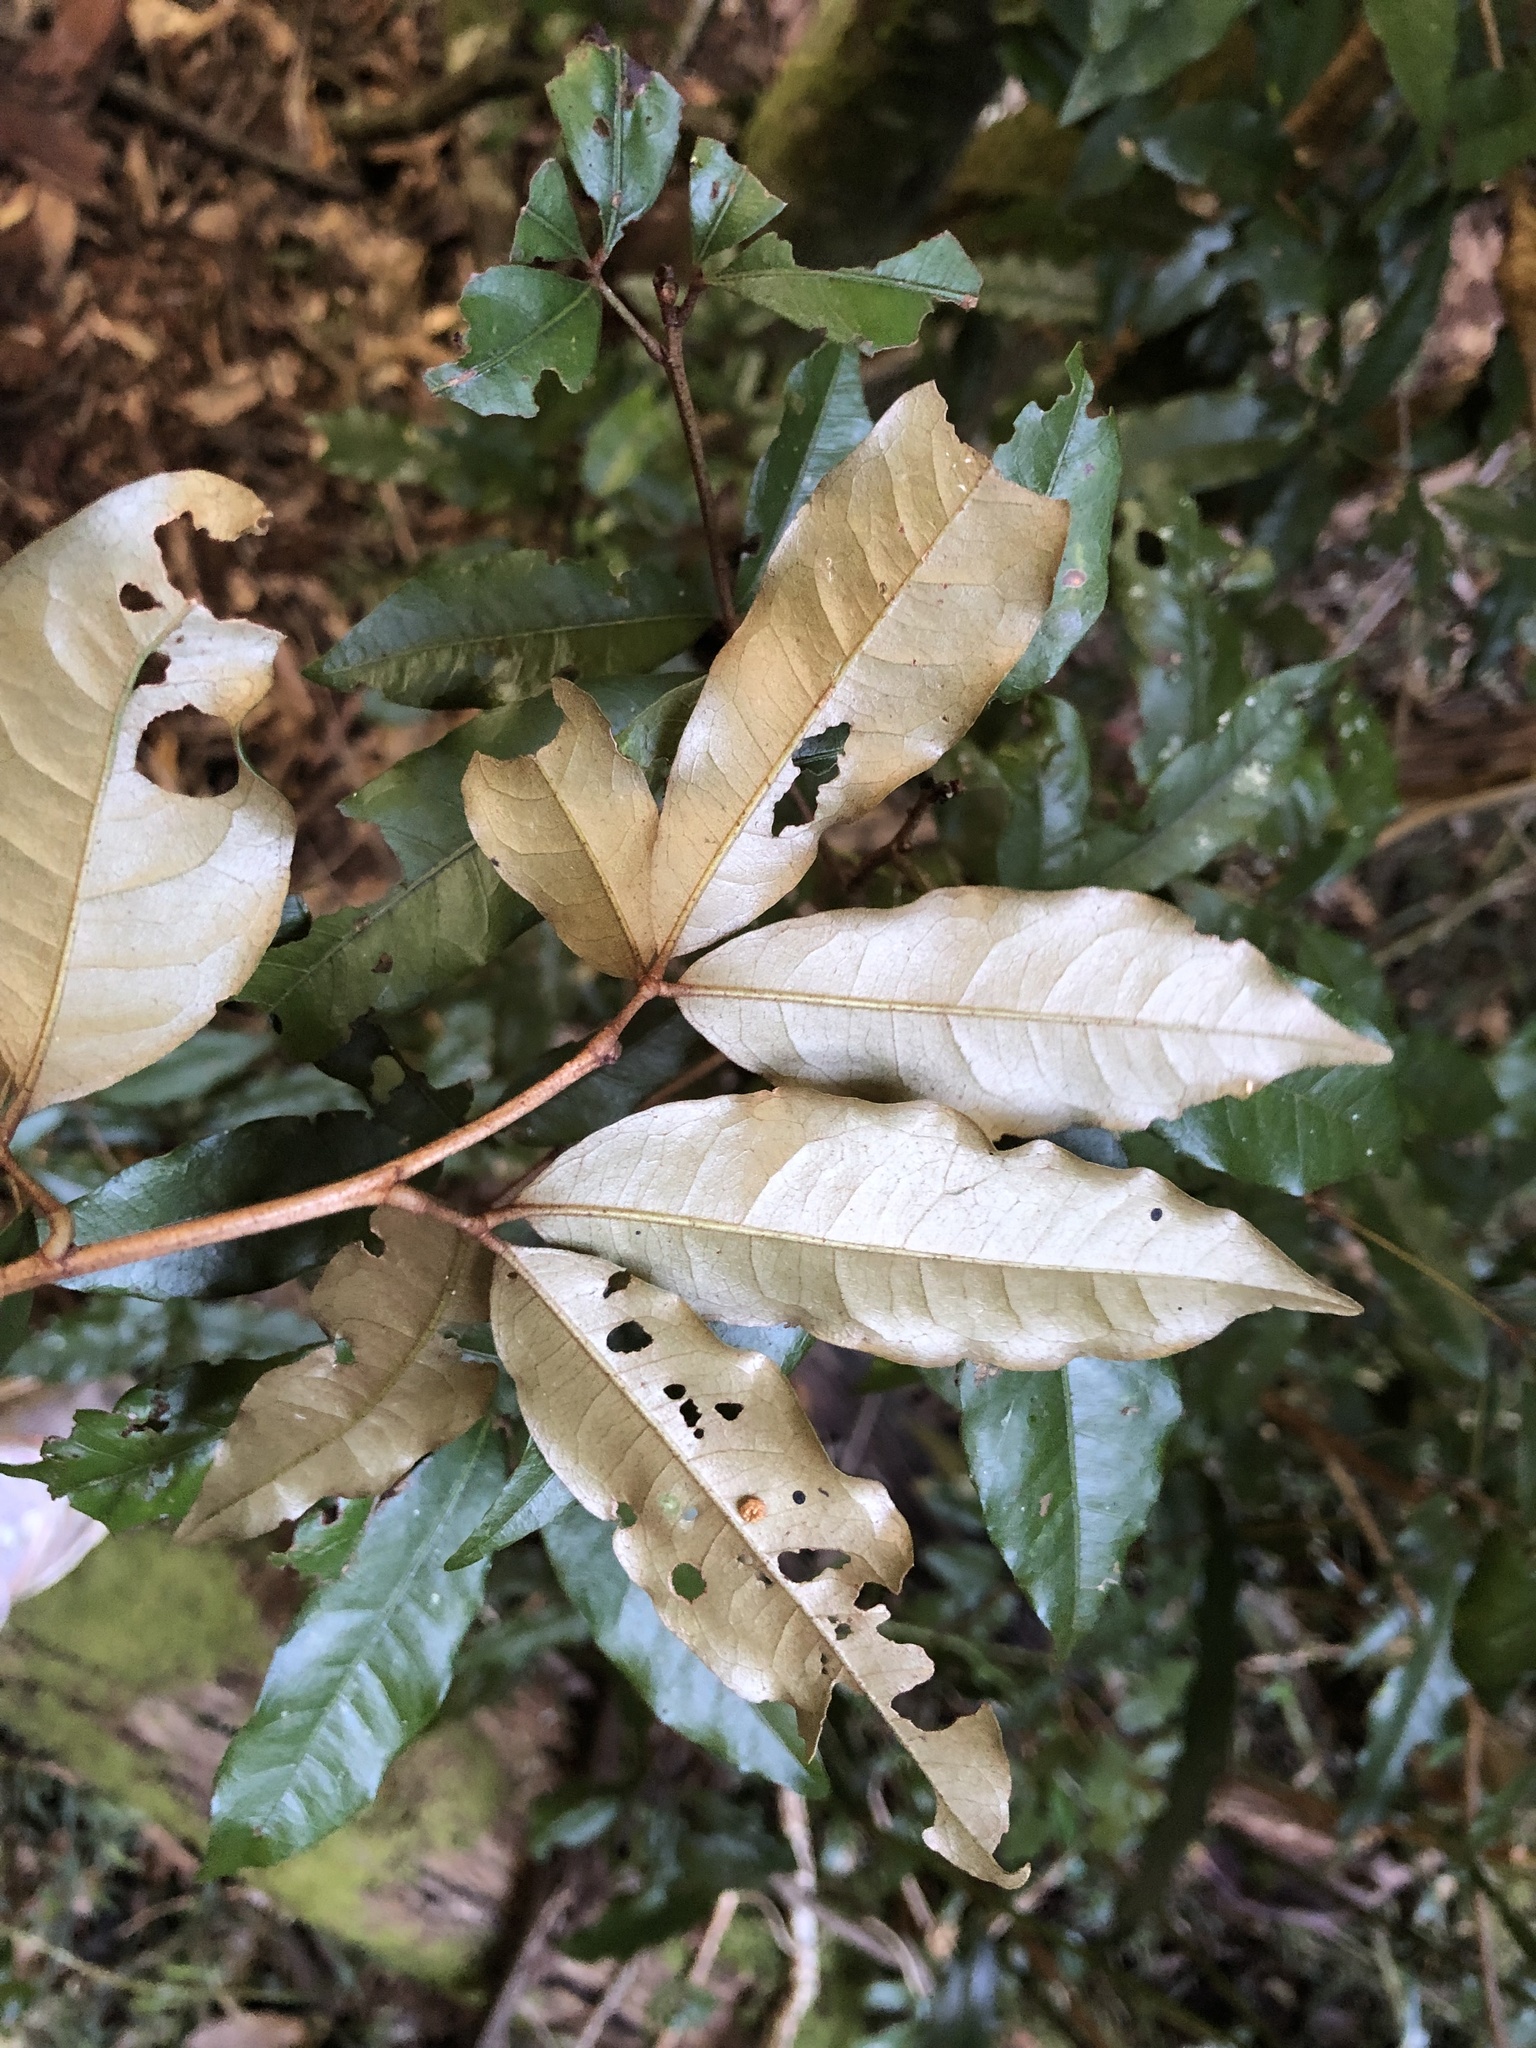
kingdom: Plantae
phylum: Tracheophyta
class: Magnoliopsida
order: Malvales
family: Malvaceae
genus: Argyrodendron
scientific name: Argyrodendron trifoliolatum
